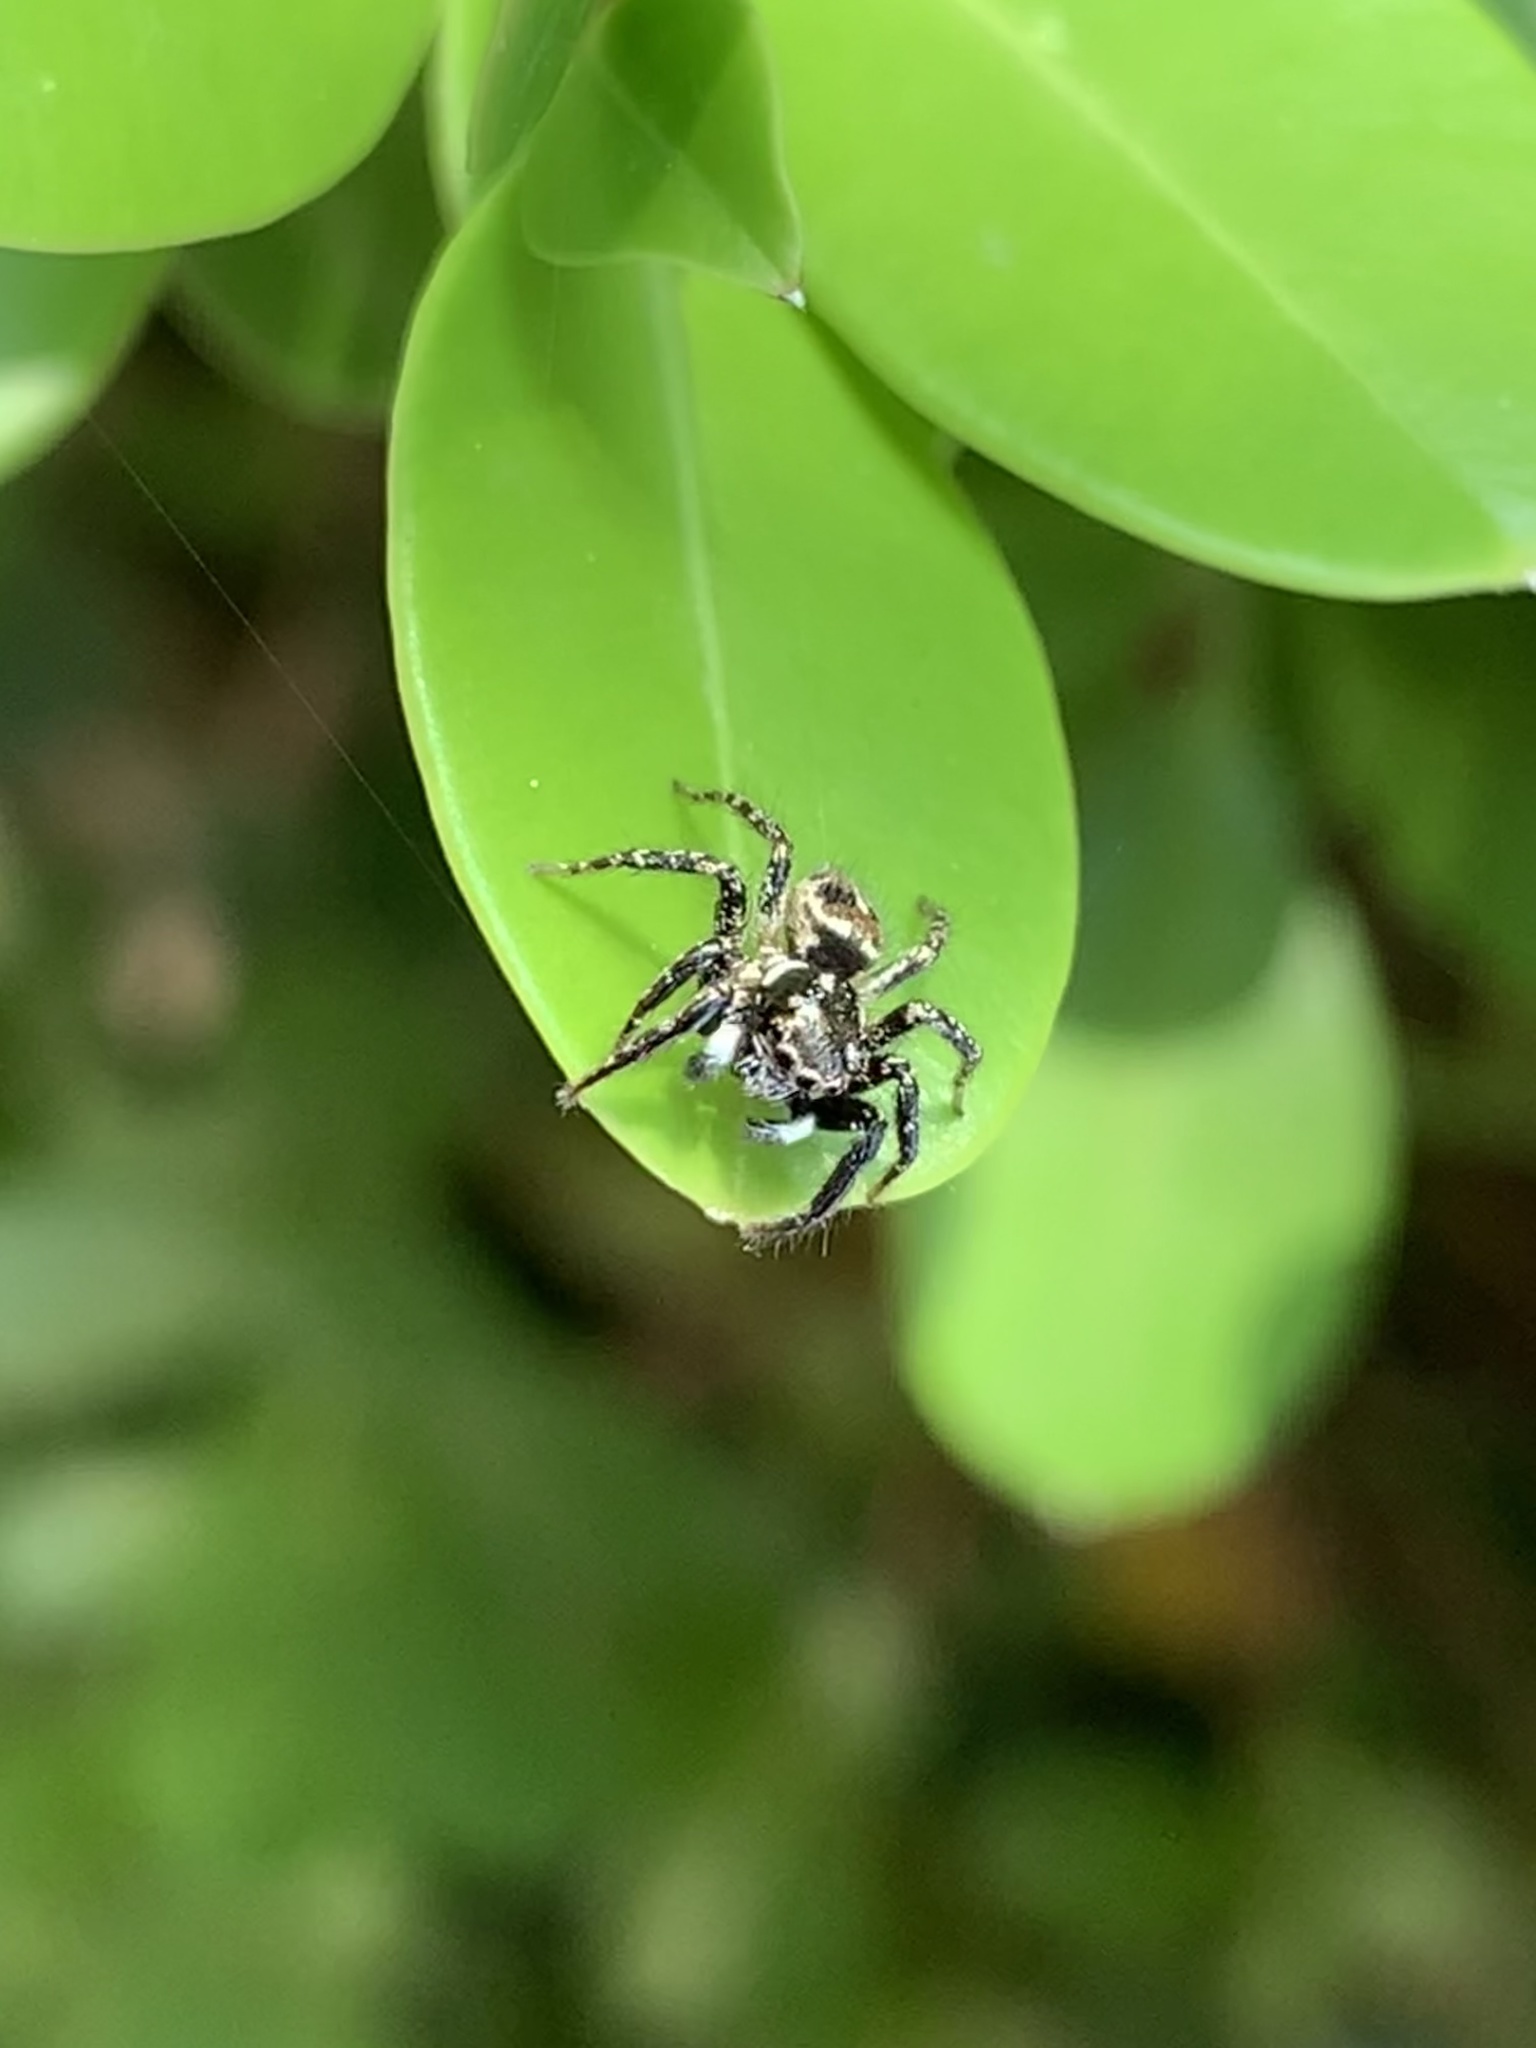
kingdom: Animalia
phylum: Arthropoda
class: Arachnida
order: Araneae
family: Salticidae
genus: Anasaitis
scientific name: Anasaitis canosa
